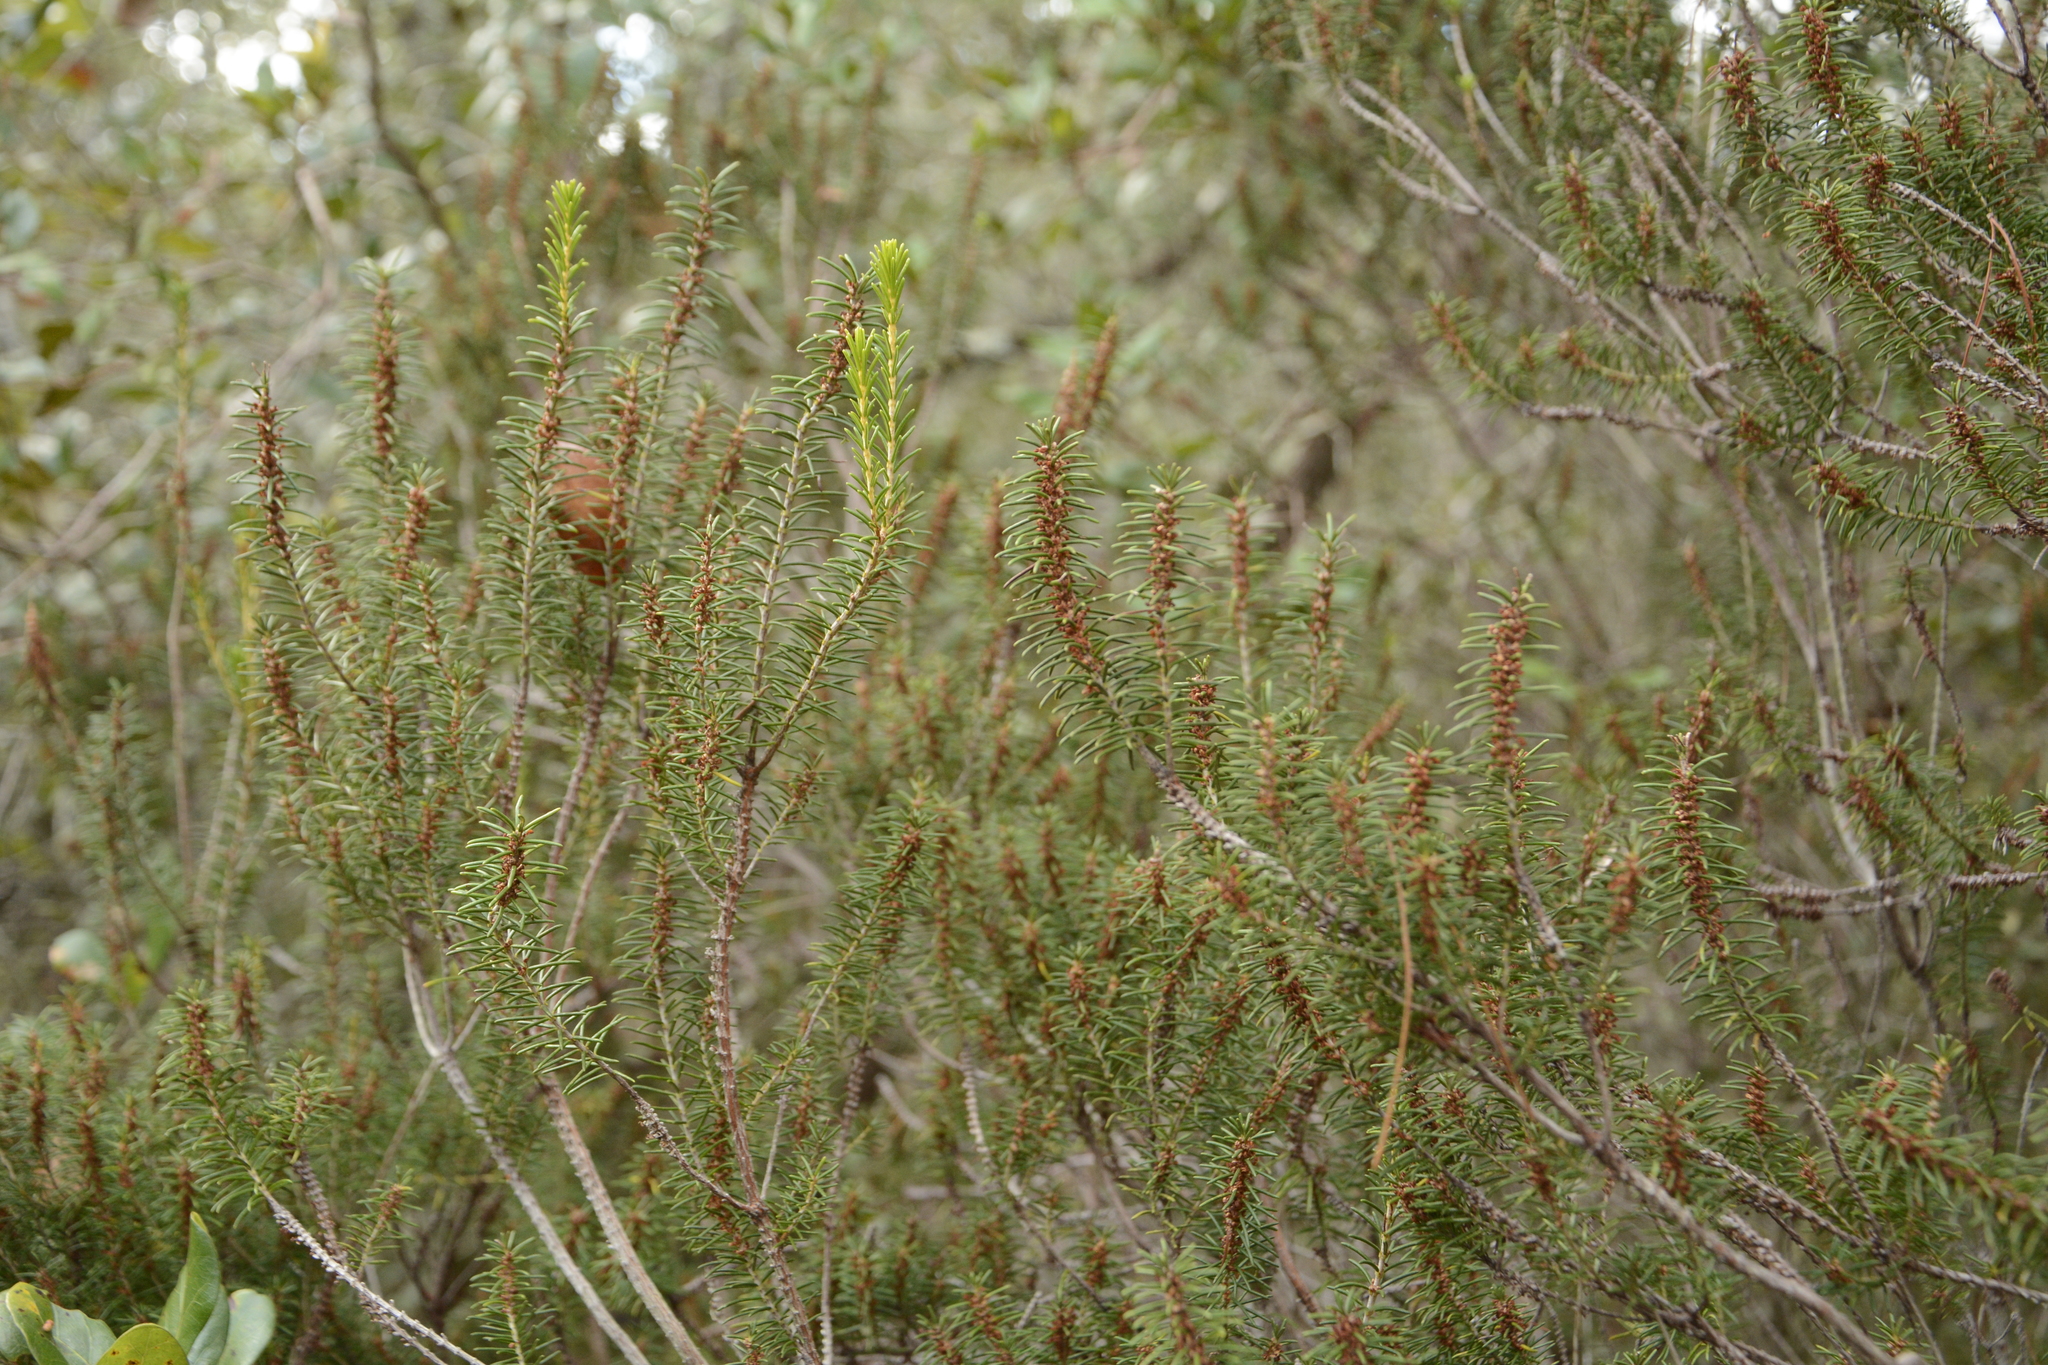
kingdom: Plantae
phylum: Tracheophyta
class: Magnoliopsida
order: Ericales
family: Ericaceae
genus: Ceratiola
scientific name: Ceratiola ericoides
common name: Sandhill-rosemary
